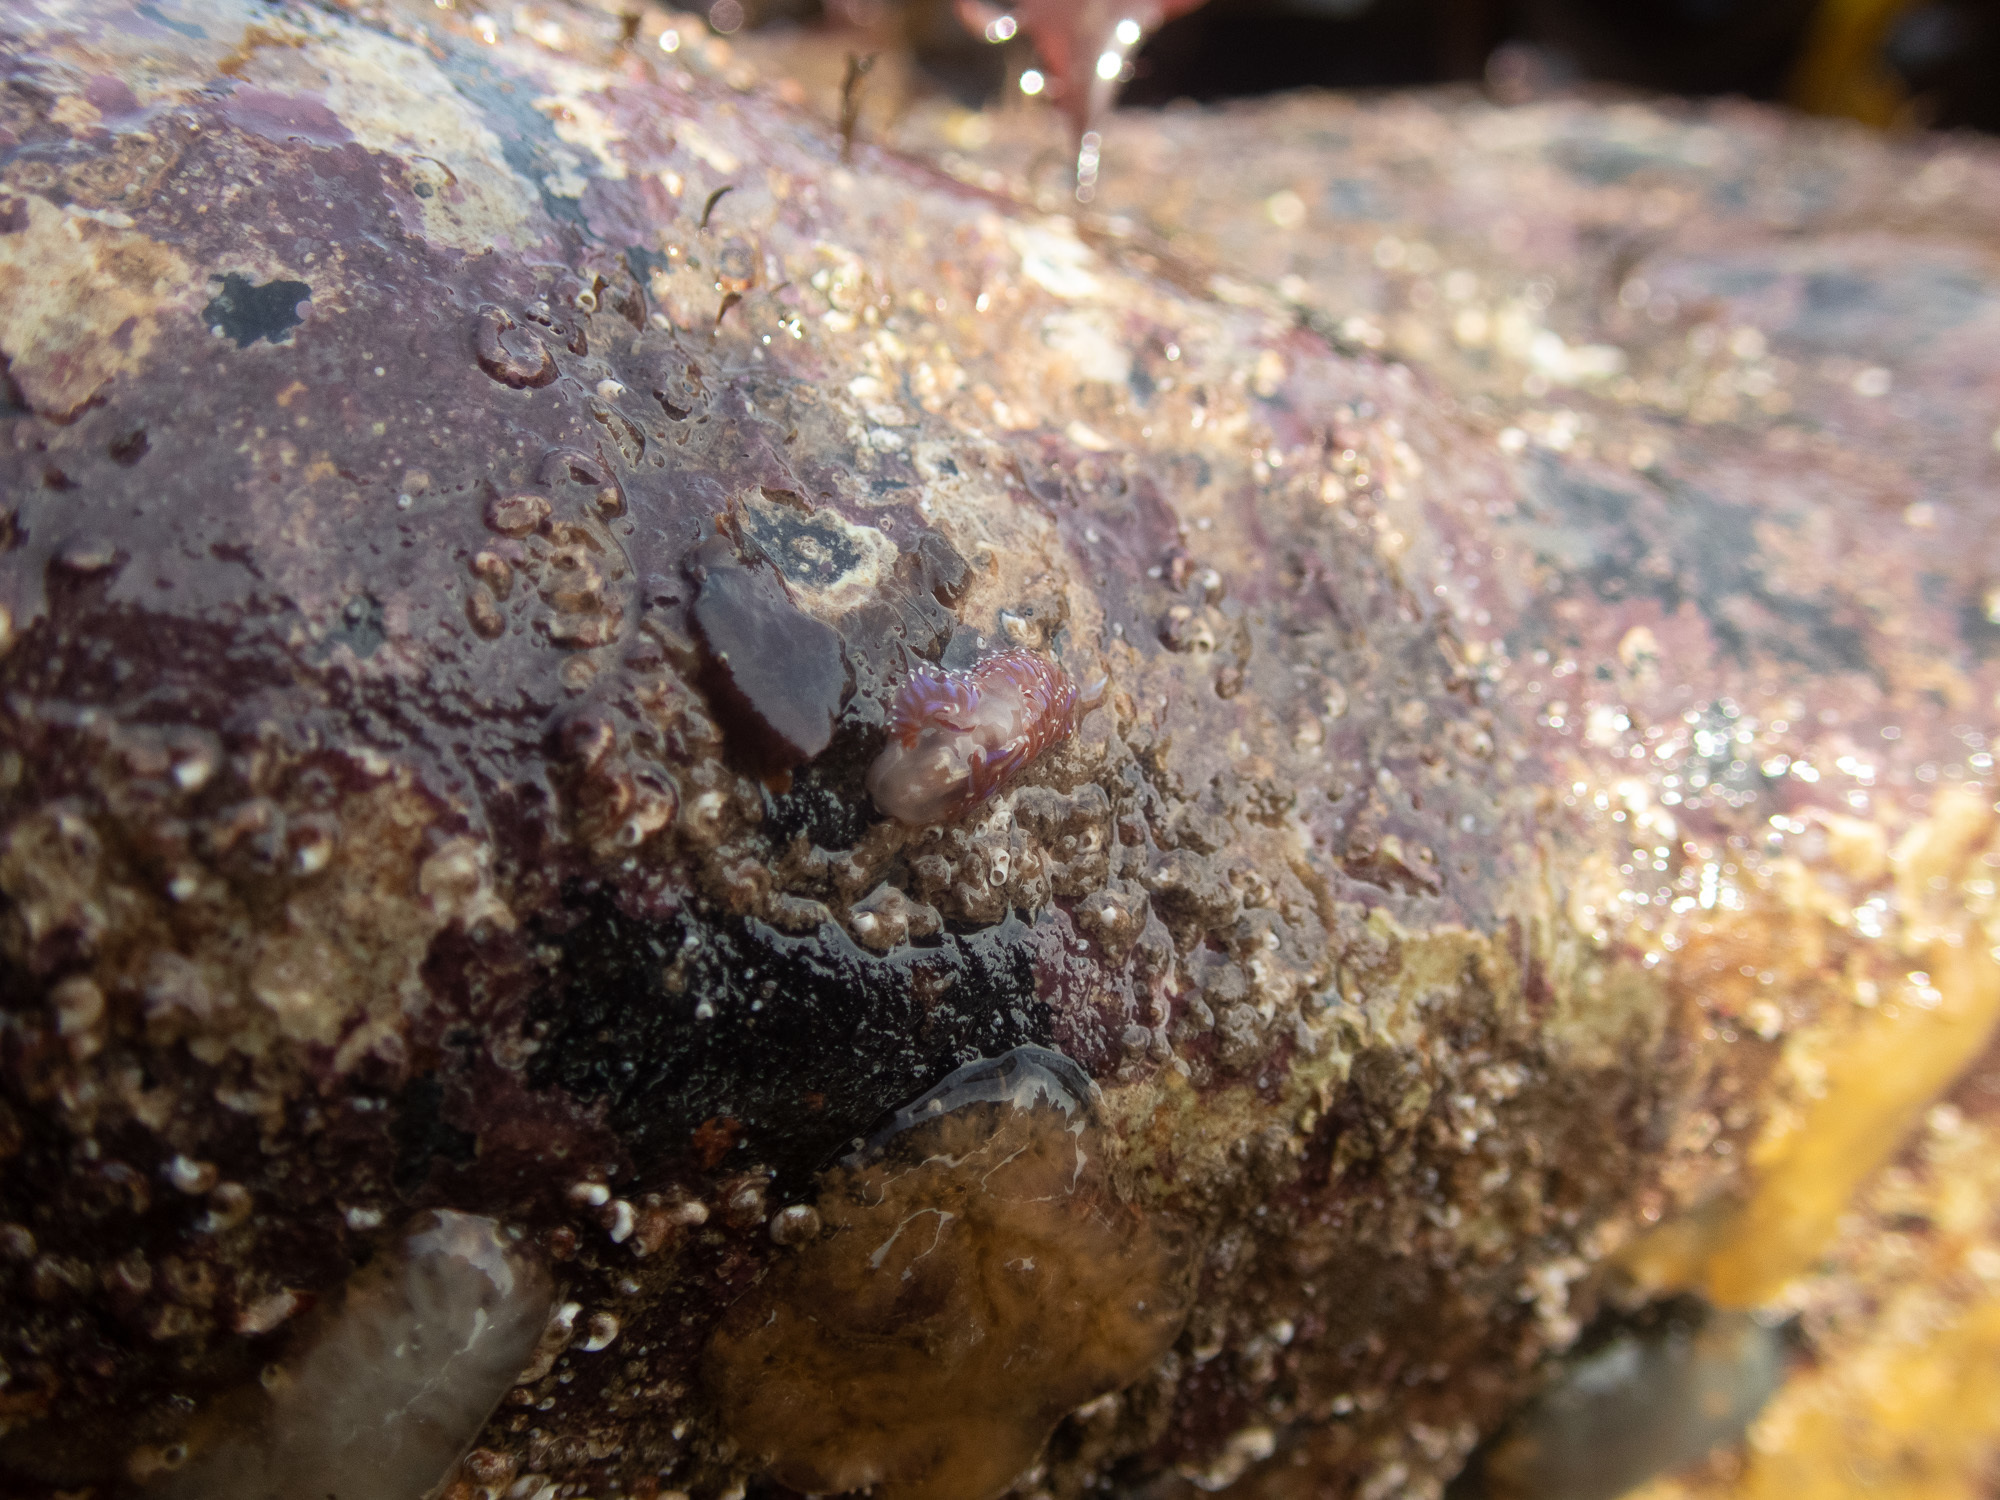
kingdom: Animalia
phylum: Mollusca
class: Gastropoda
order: Nudibranchia
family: Facelinidae
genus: Facelina
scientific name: Facelina auriculata
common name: Slender facelina
